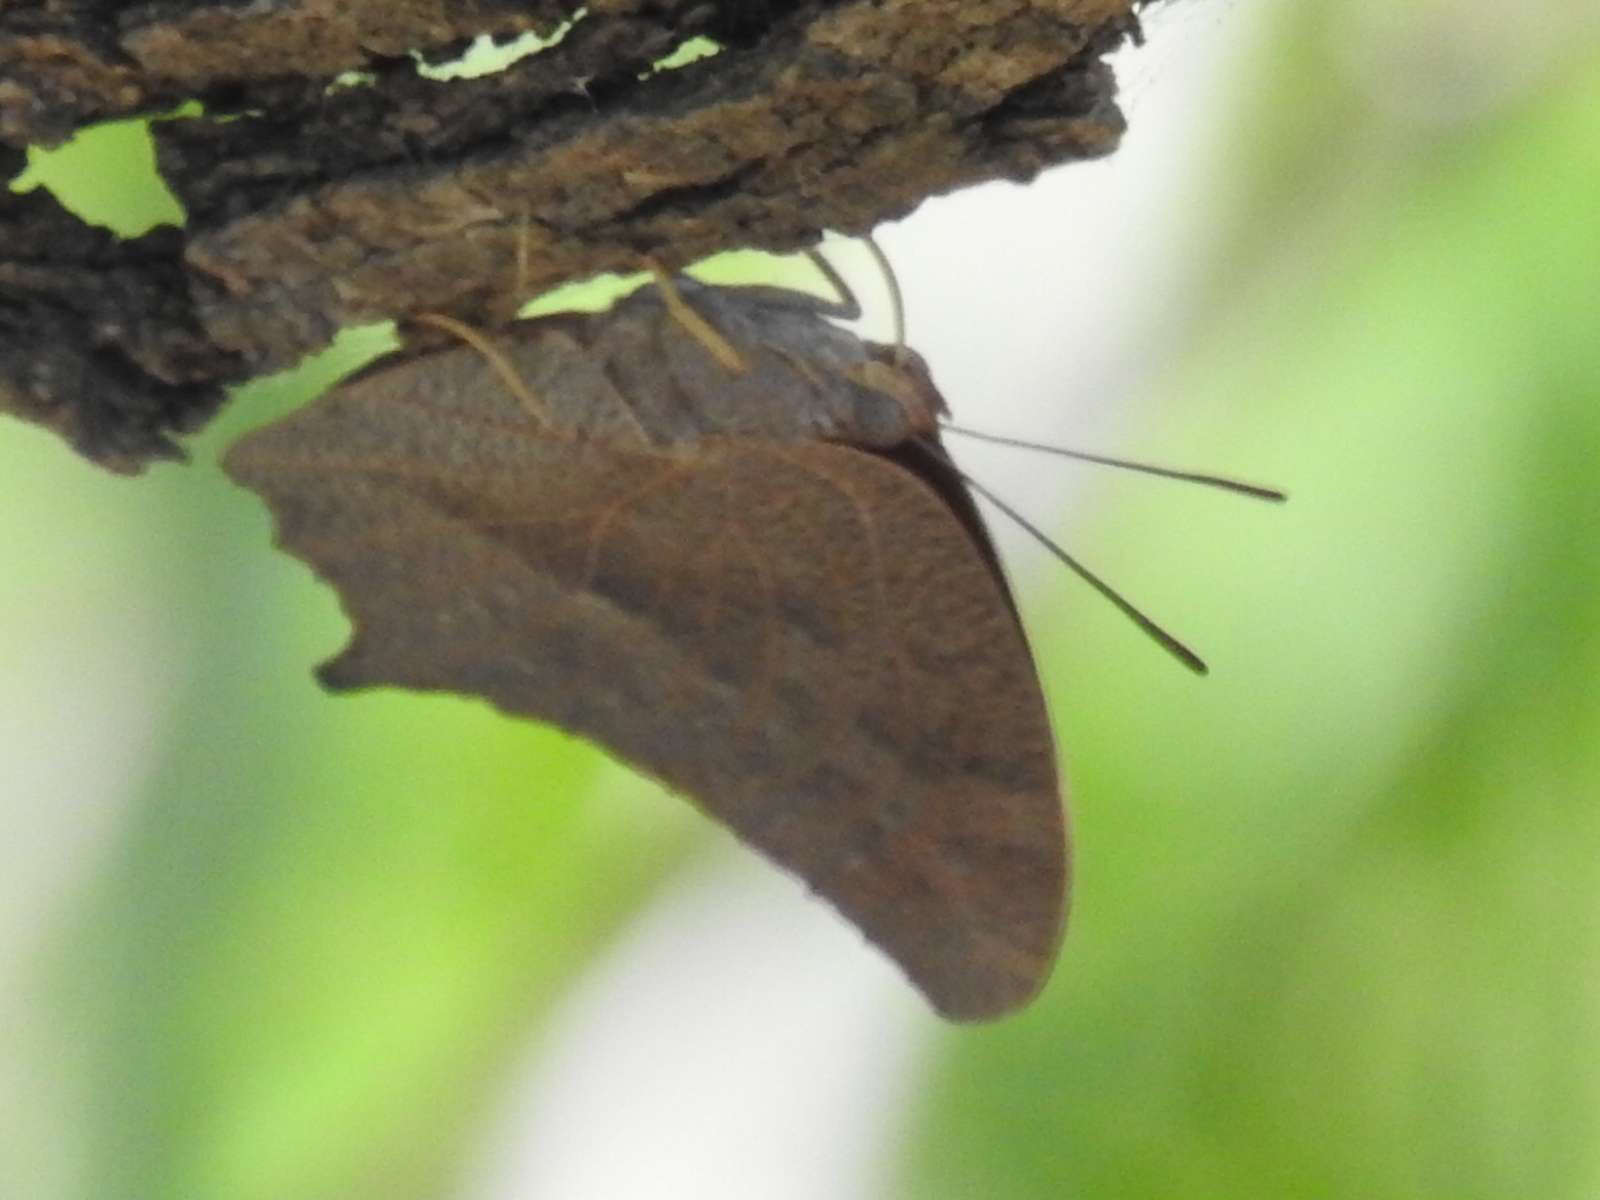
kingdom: Animalia
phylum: Arthropoda
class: Insecta
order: Lepidoptera
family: Nymphalidae
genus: Anaea
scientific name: Anaea andria
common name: Goatweed leafwing
